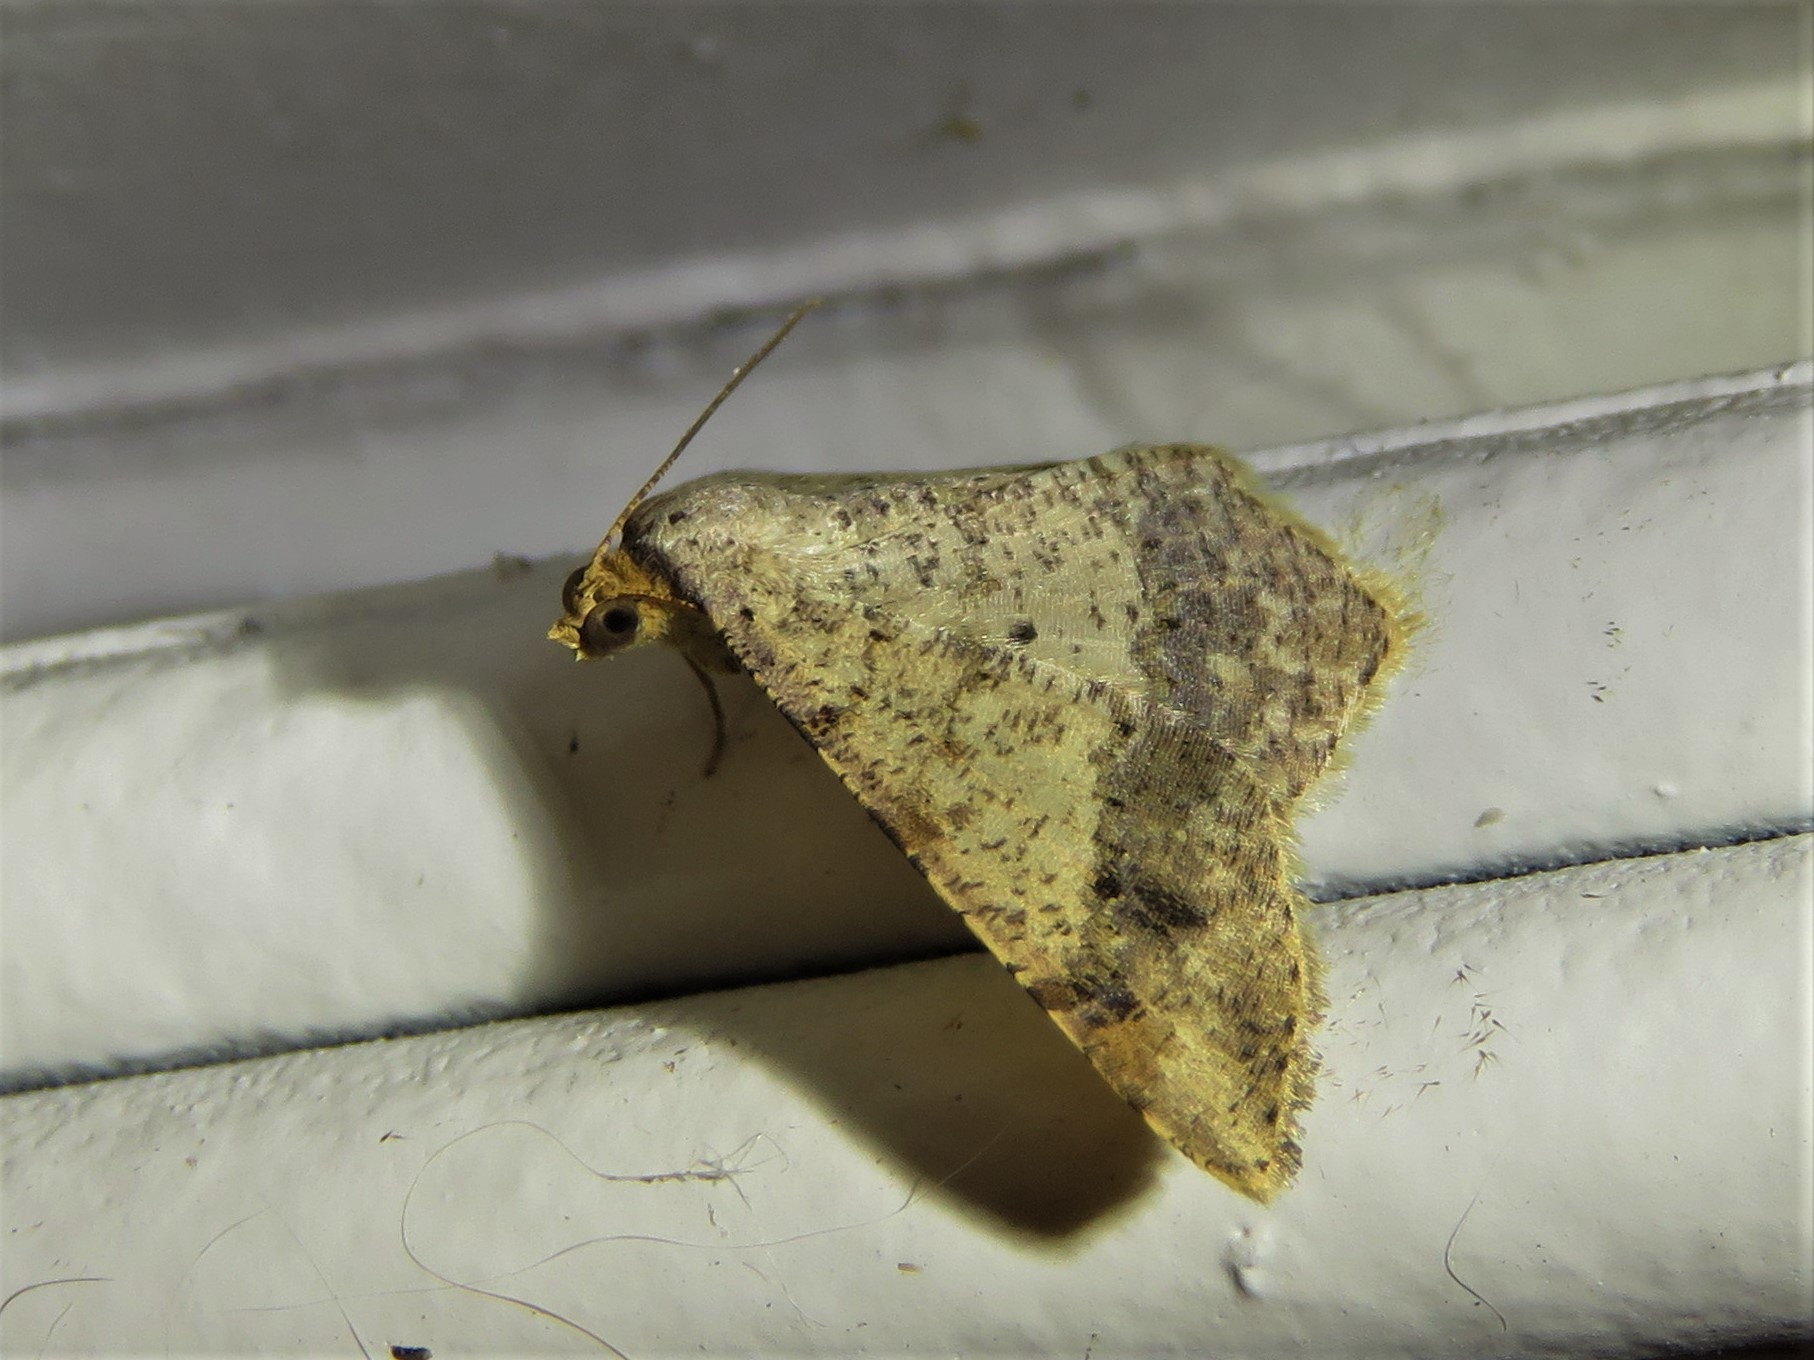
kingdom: Animalia
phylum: Arthropoda
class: Insecta
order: Lepidoptera
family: Geometridae
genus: Macaria
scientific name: Macaria abydata
